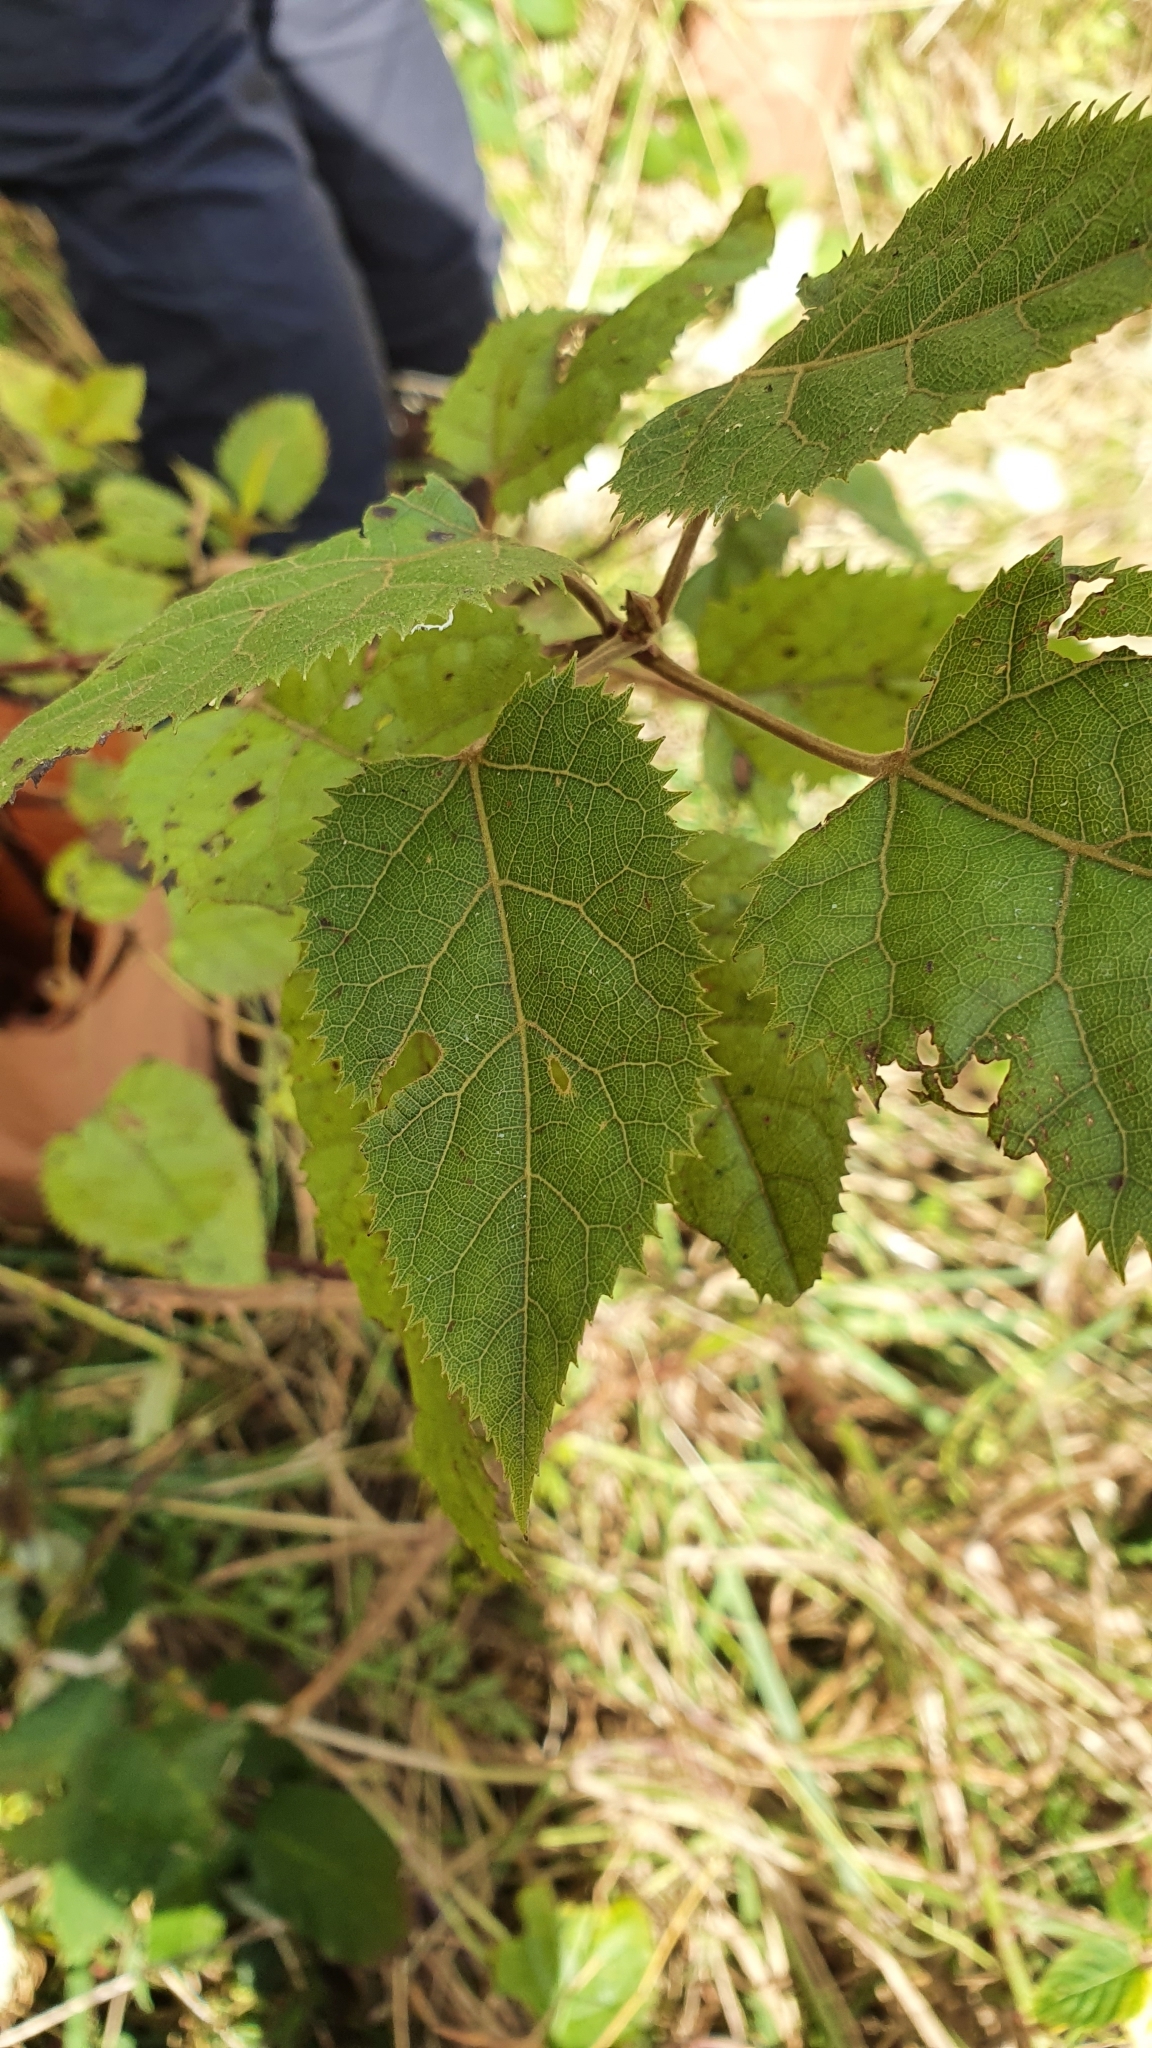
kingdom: Plantae
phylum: Tracheophyta
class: Magnoliopsida
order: Oxalidales
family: Elaeocarpaceae
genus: Aristotelia
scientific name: Aristotelia serrata
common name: New zealand wineberry
